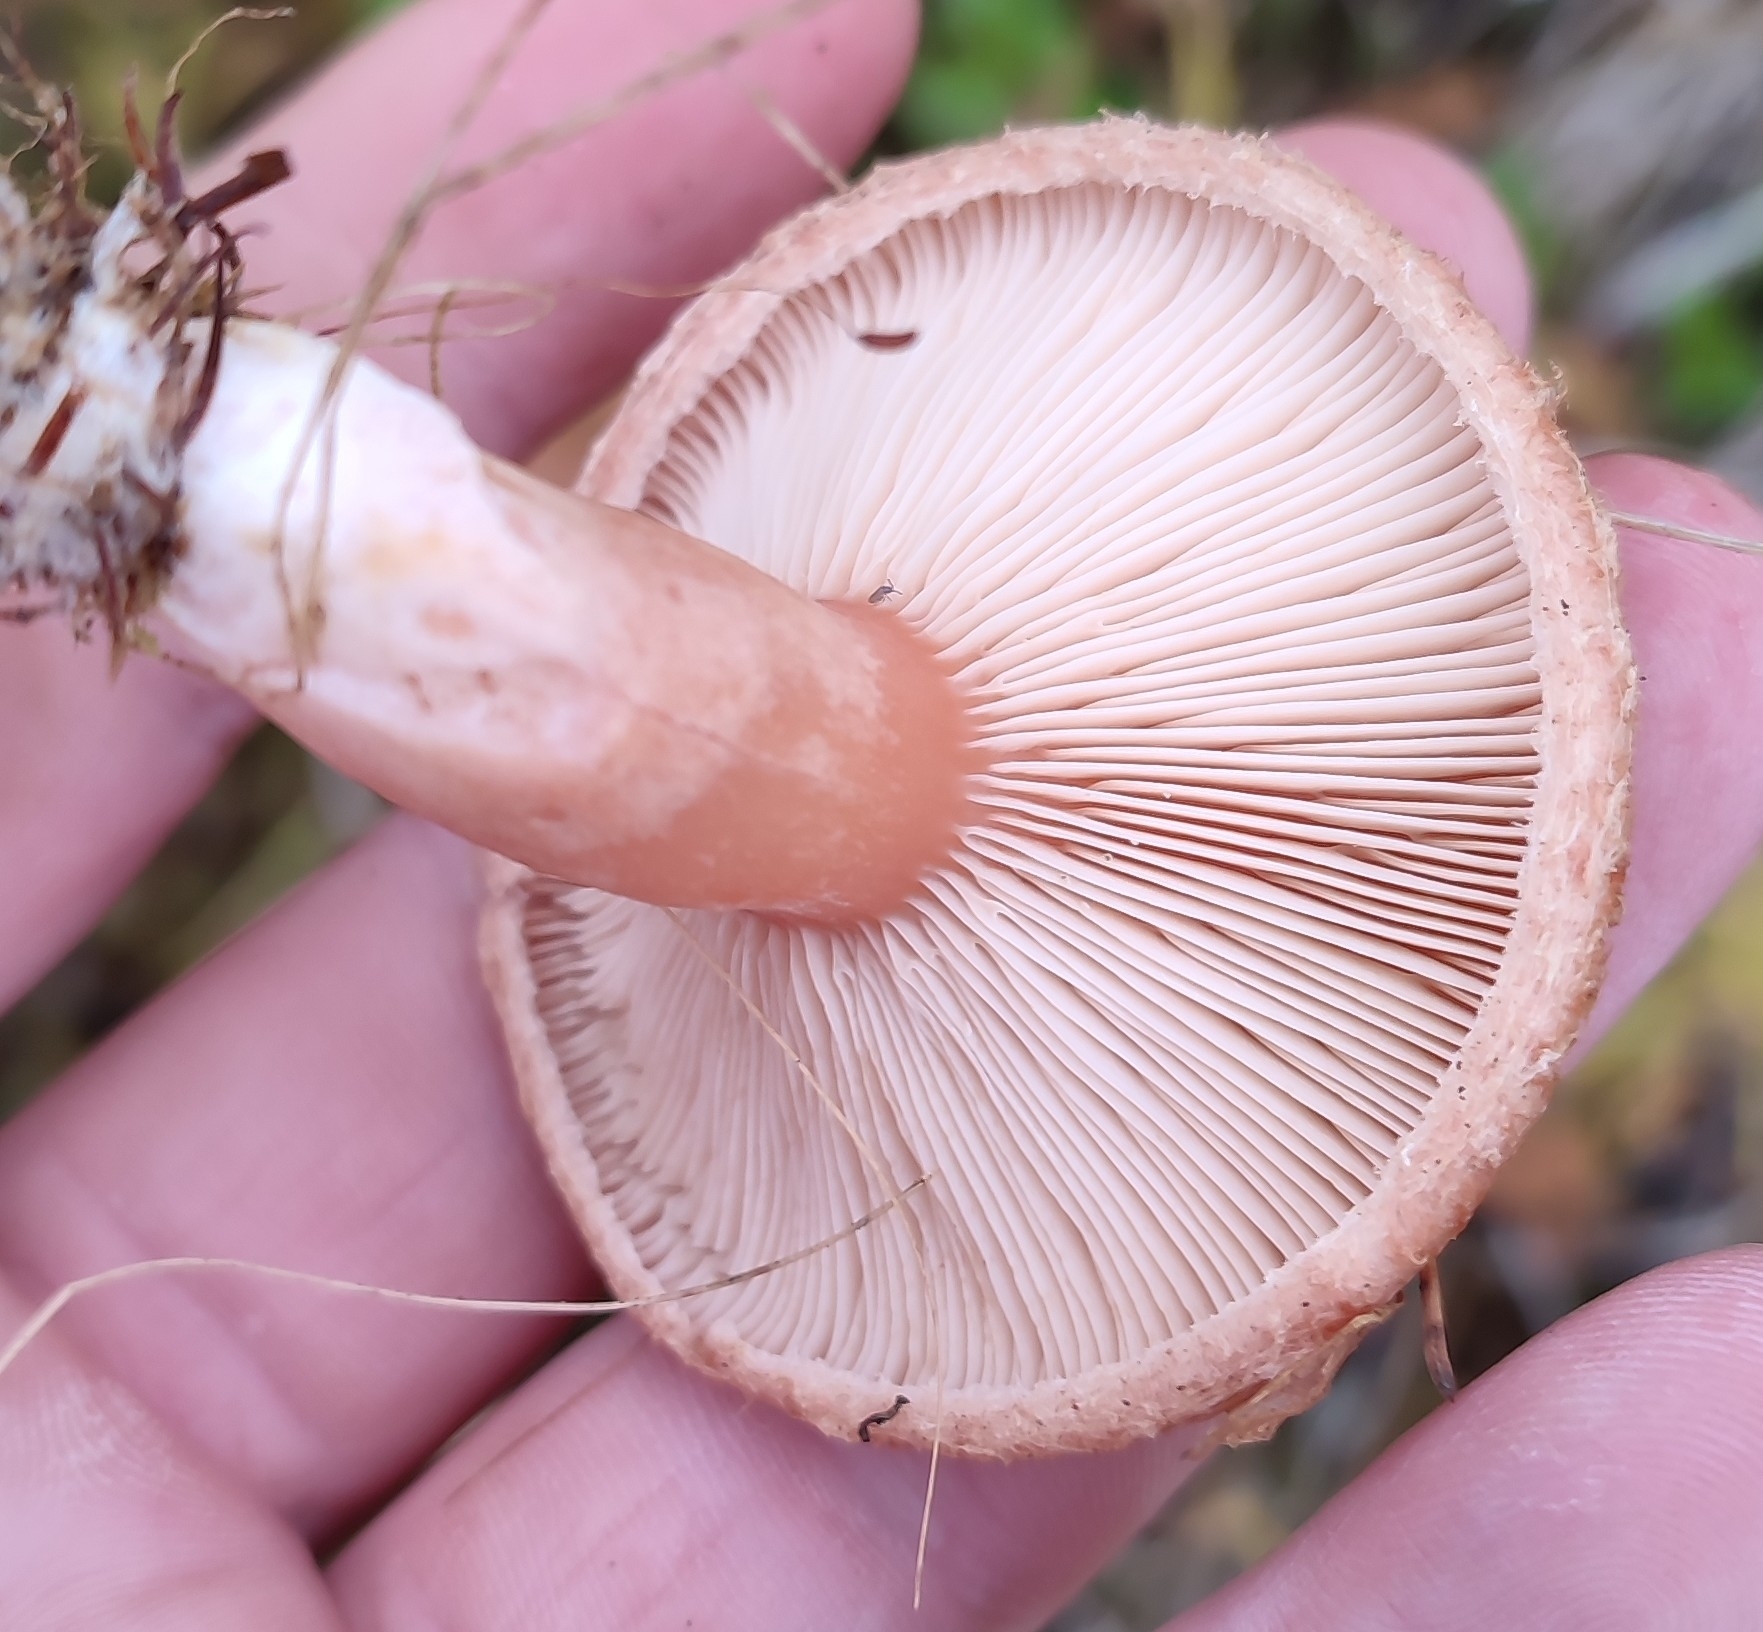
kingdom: Fungi
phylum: Basidiomycota
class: Agaricomycetes
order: Russulales
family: Russulaceae
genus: Lactarius
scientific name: Lactarius torminosus
